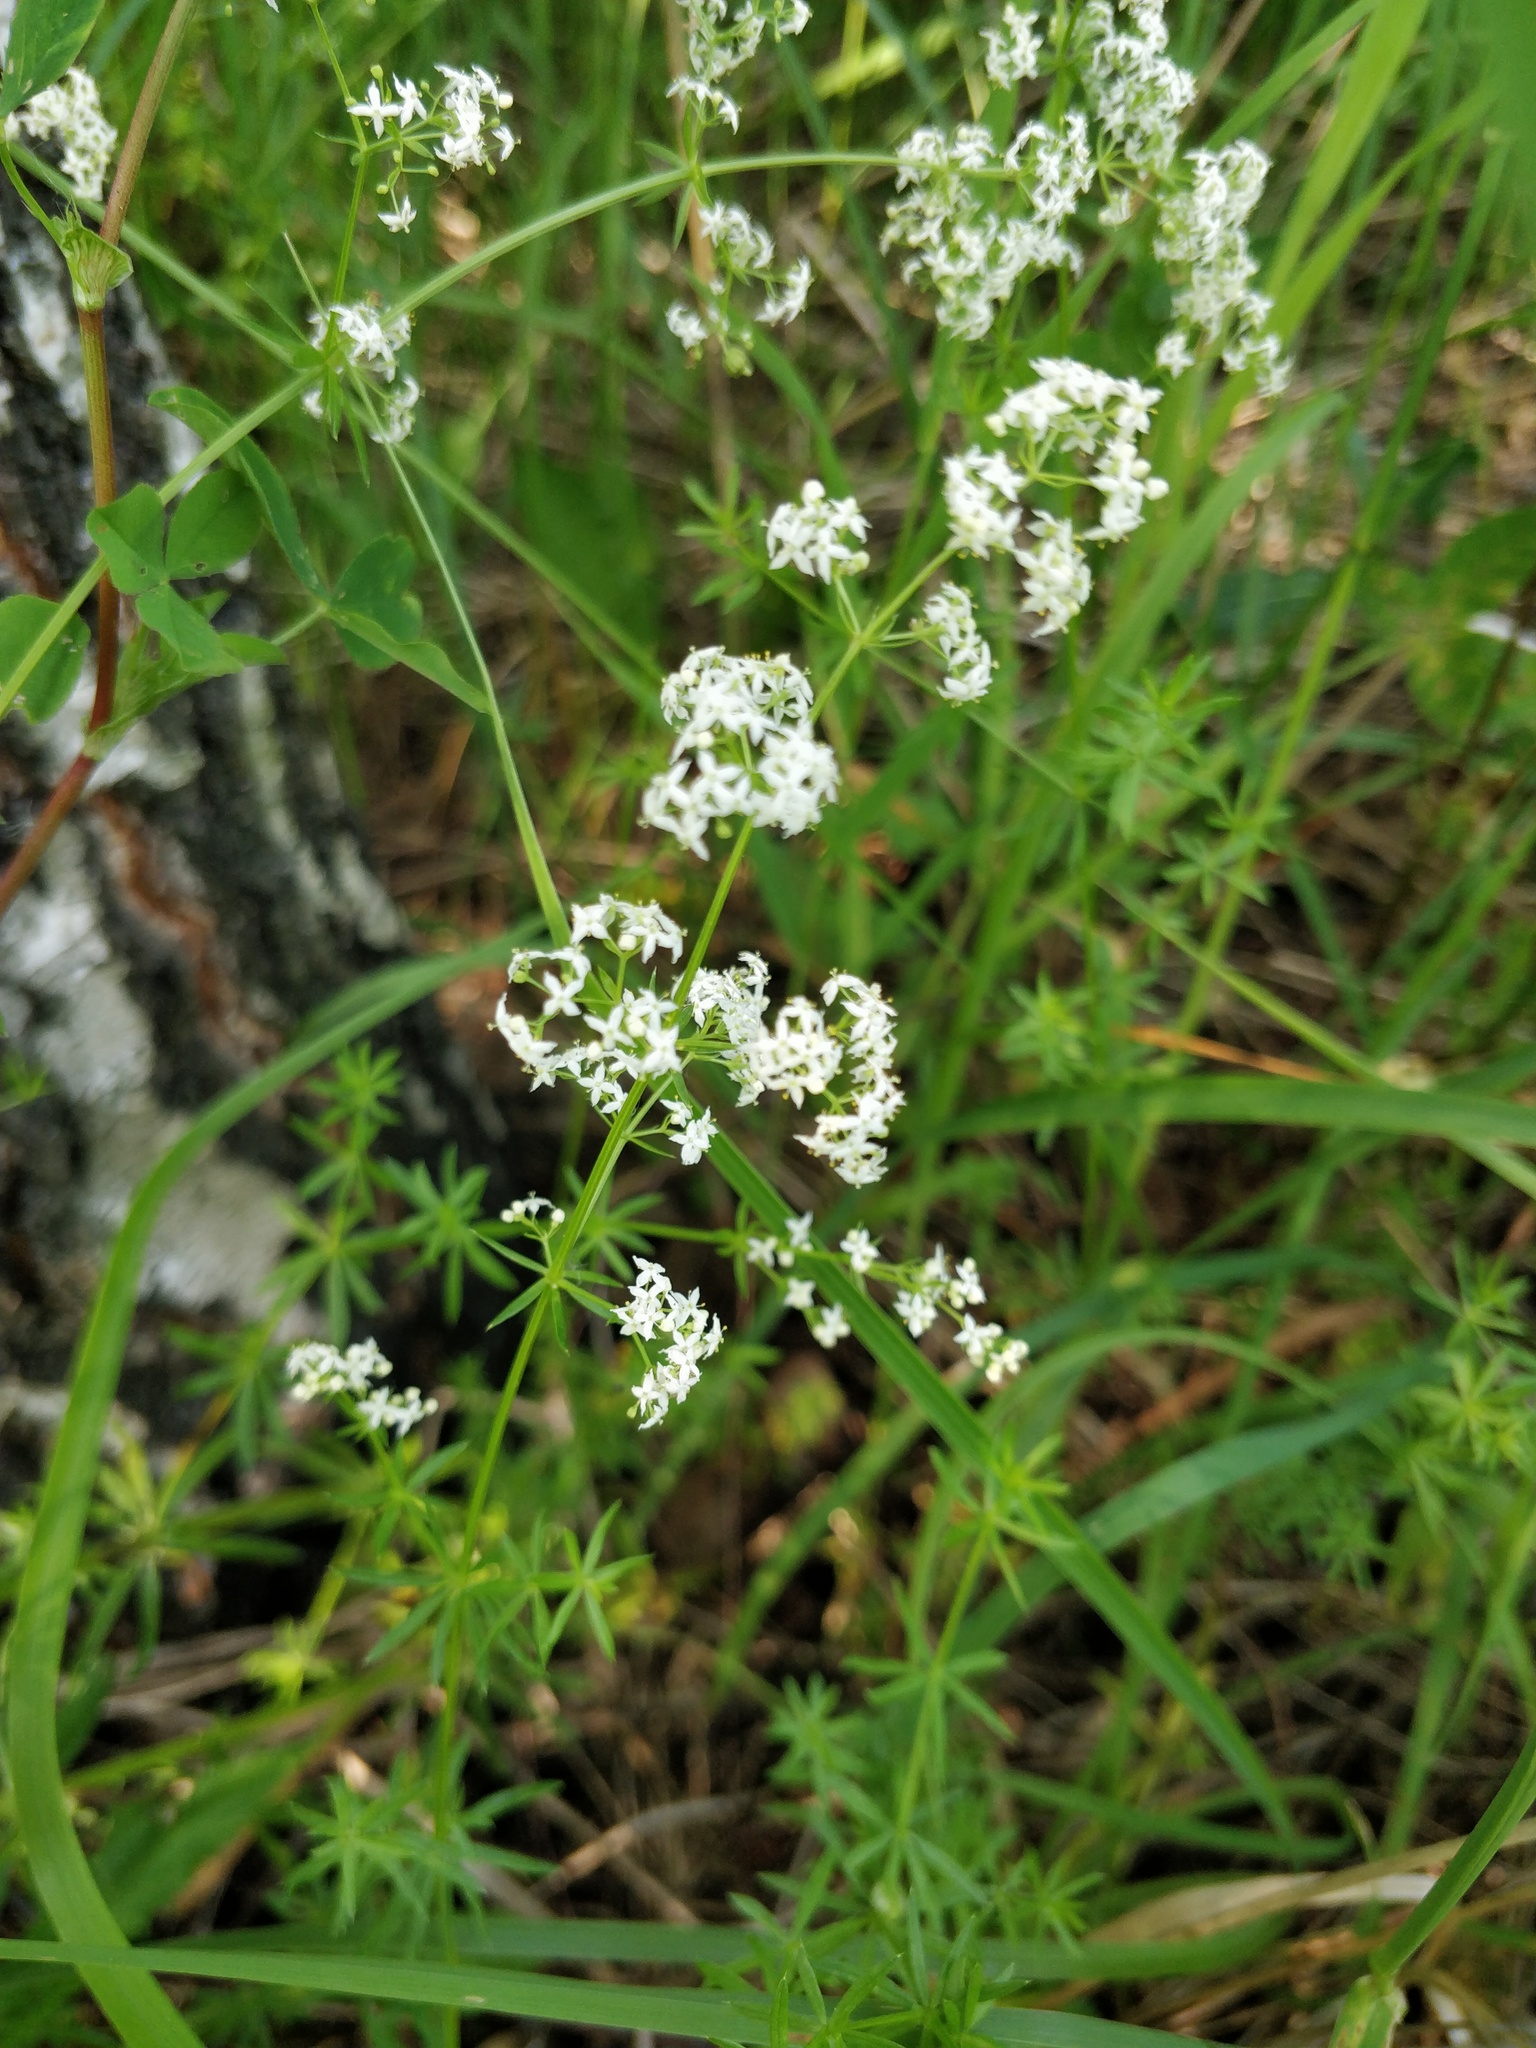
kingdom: Plantae
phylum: Tracheophyta
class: Magnoliopsida
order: Gentianales
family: Rubiaceae
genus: Galium
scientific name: Galium mollugo
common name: Hedge bedstraw
